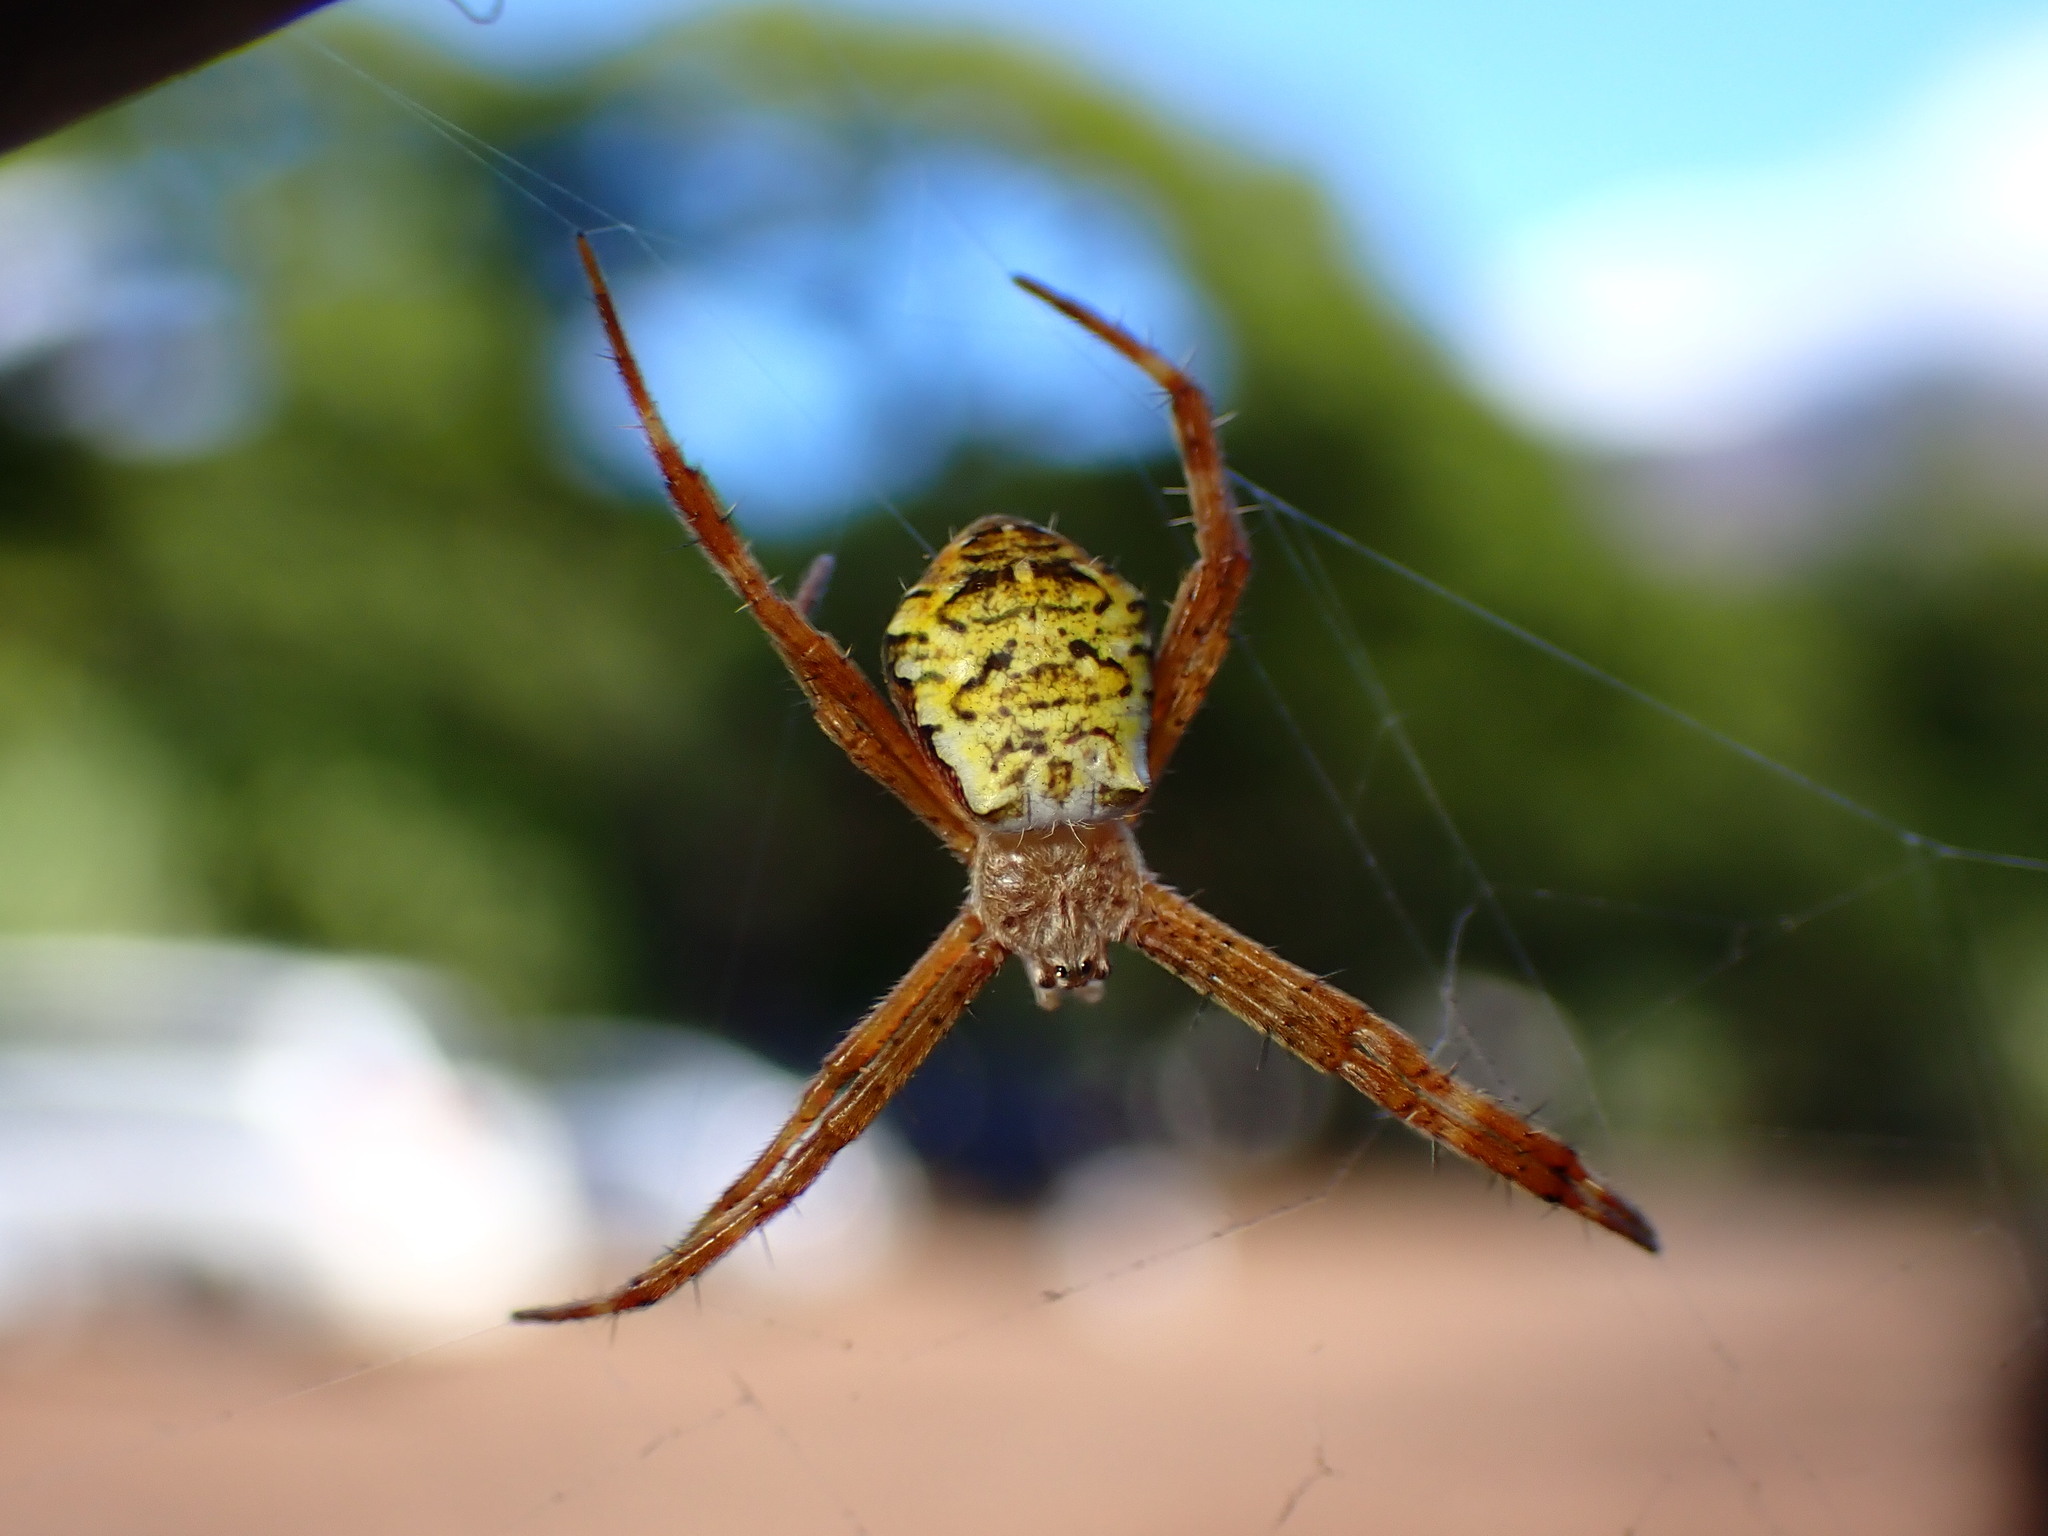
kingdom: Animalia
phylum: Arthropoda
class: Arachnida
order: Araneae
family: Araneidae
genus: Argiope
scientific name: Argiope appensa
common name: Garden spider
